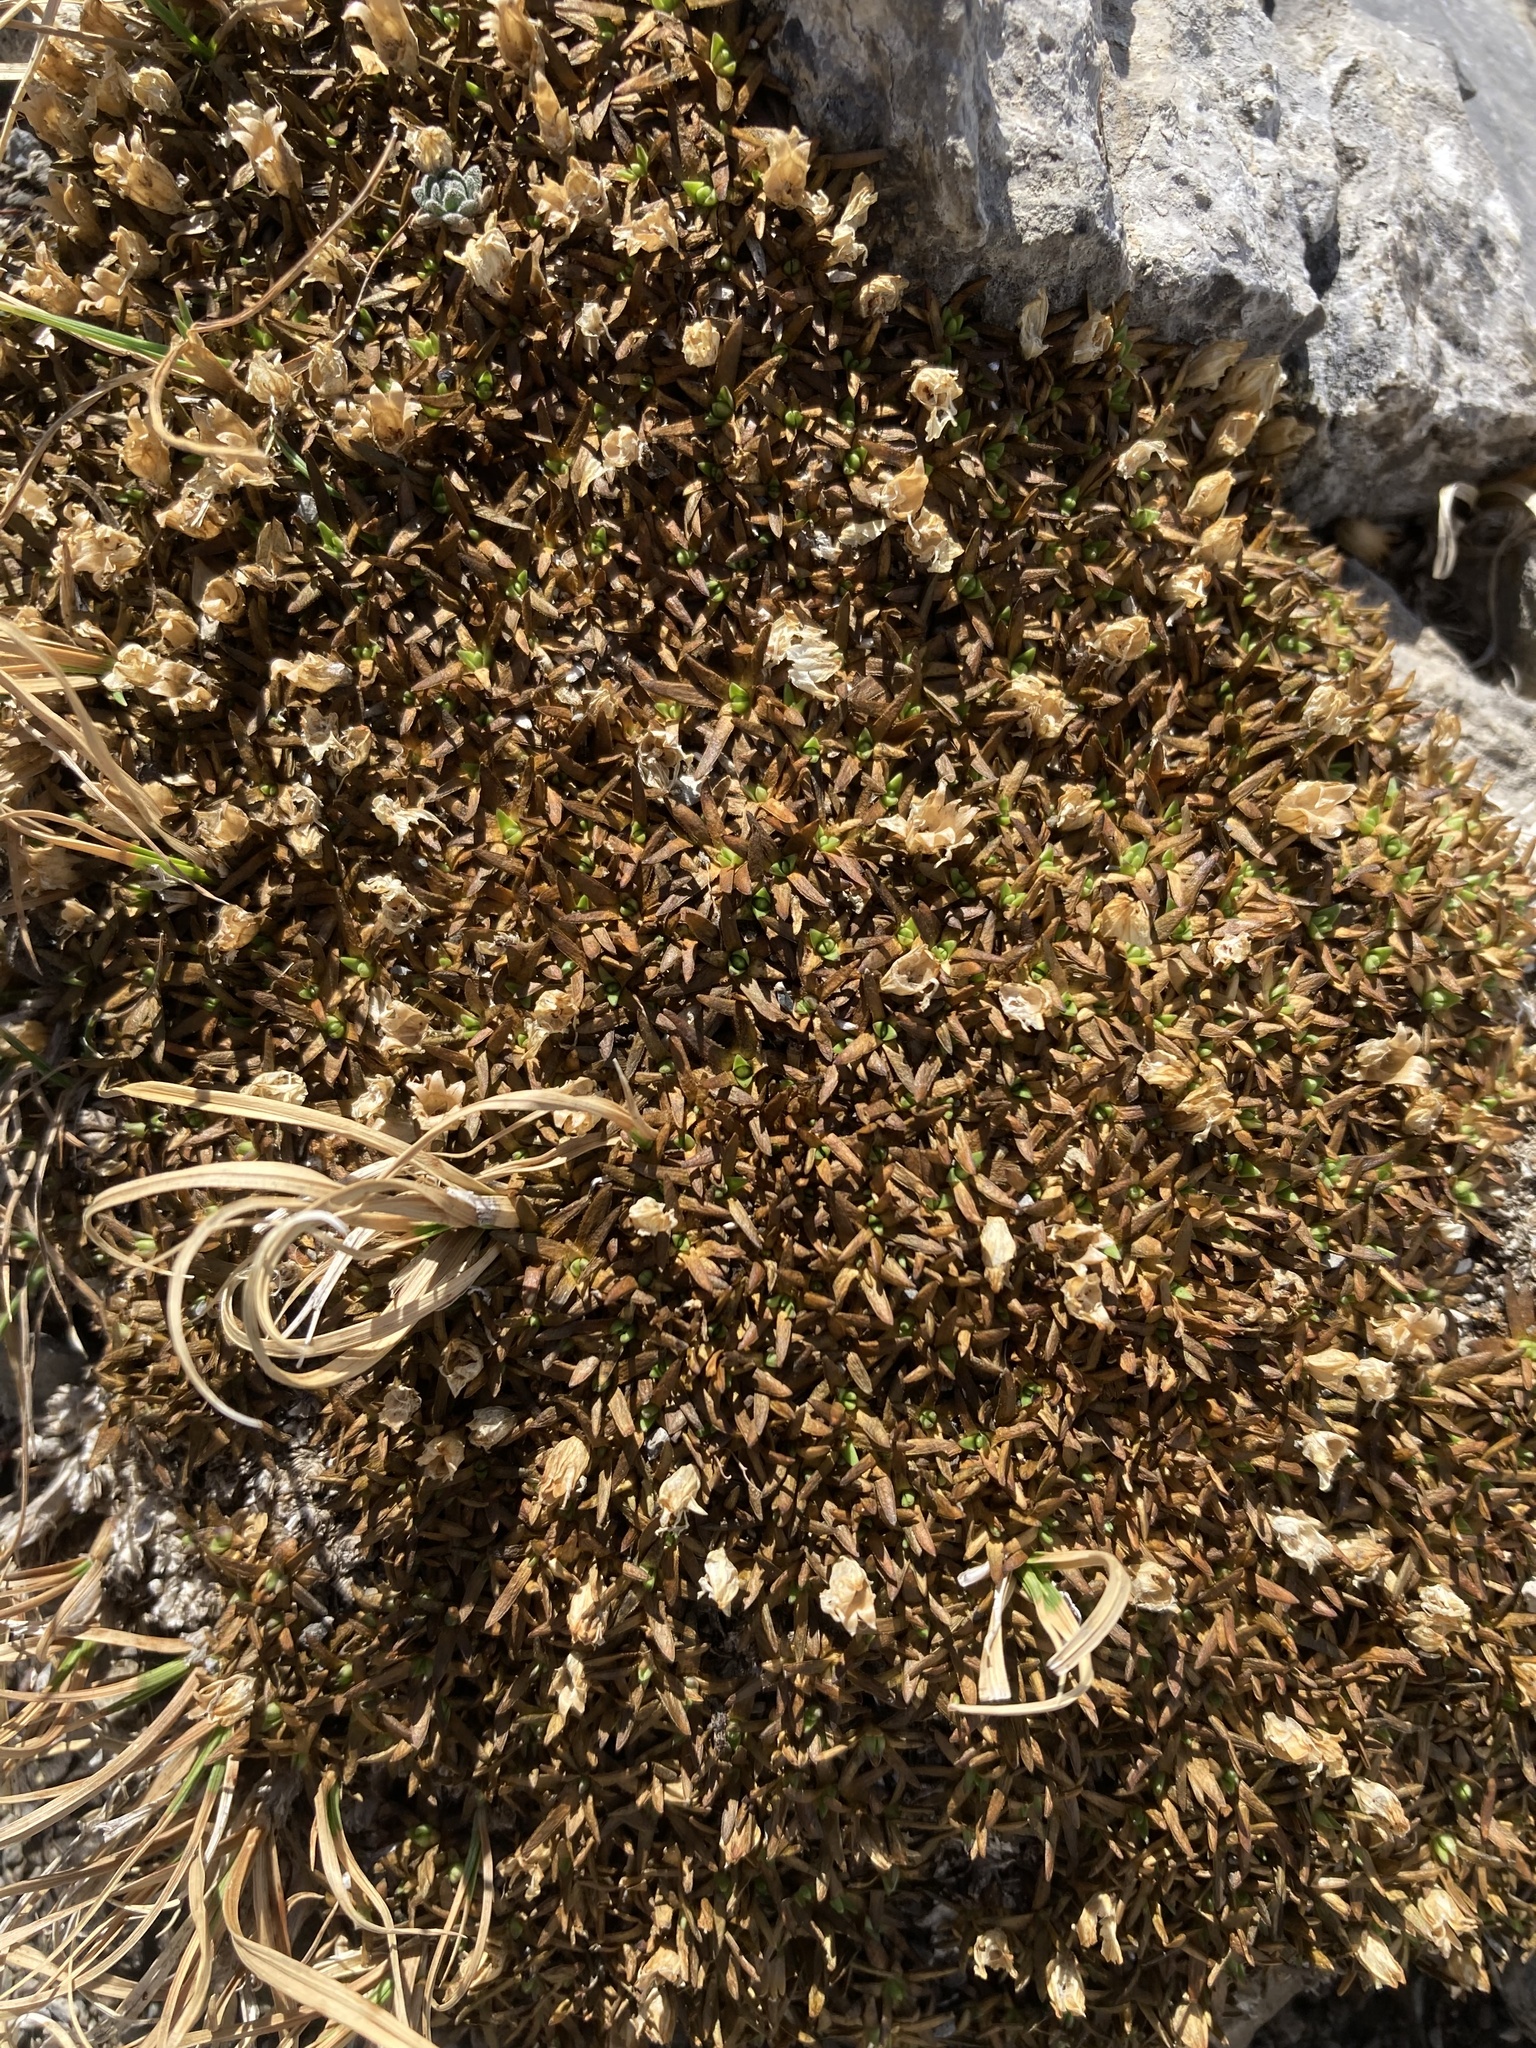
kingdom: Plantae
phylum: Tracheophyta
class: Magnoliopsida
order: Caryophyllales
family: Caryophyllaceae
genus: Silene
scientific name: Silene acaulis
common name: Moss campion
